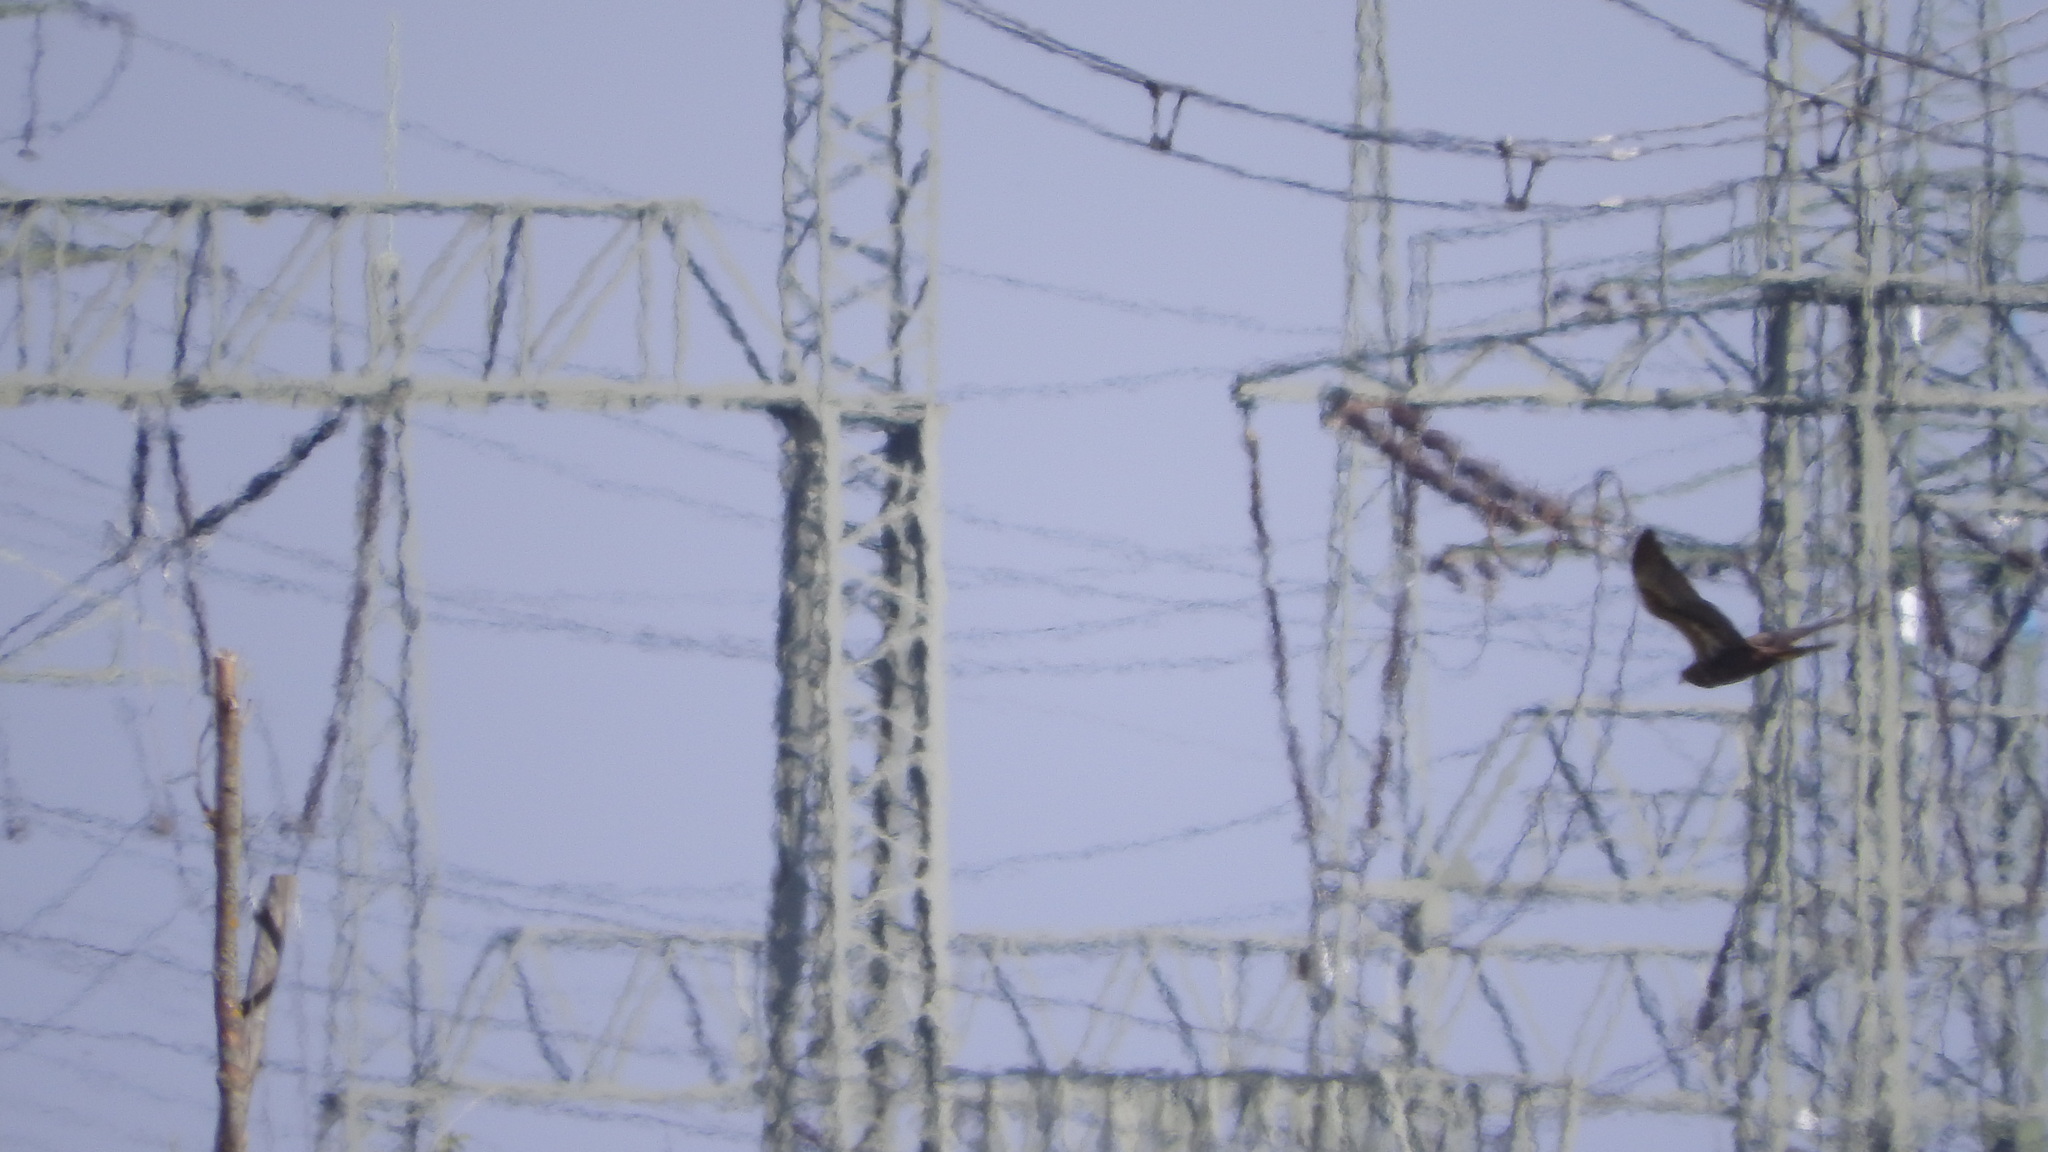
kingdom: Animalia
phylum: Chordata
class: Aves
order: Accipitriformes
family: Accipitridae
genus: Circus
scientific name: Circus aeruginosus
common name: Western marsh harrier
